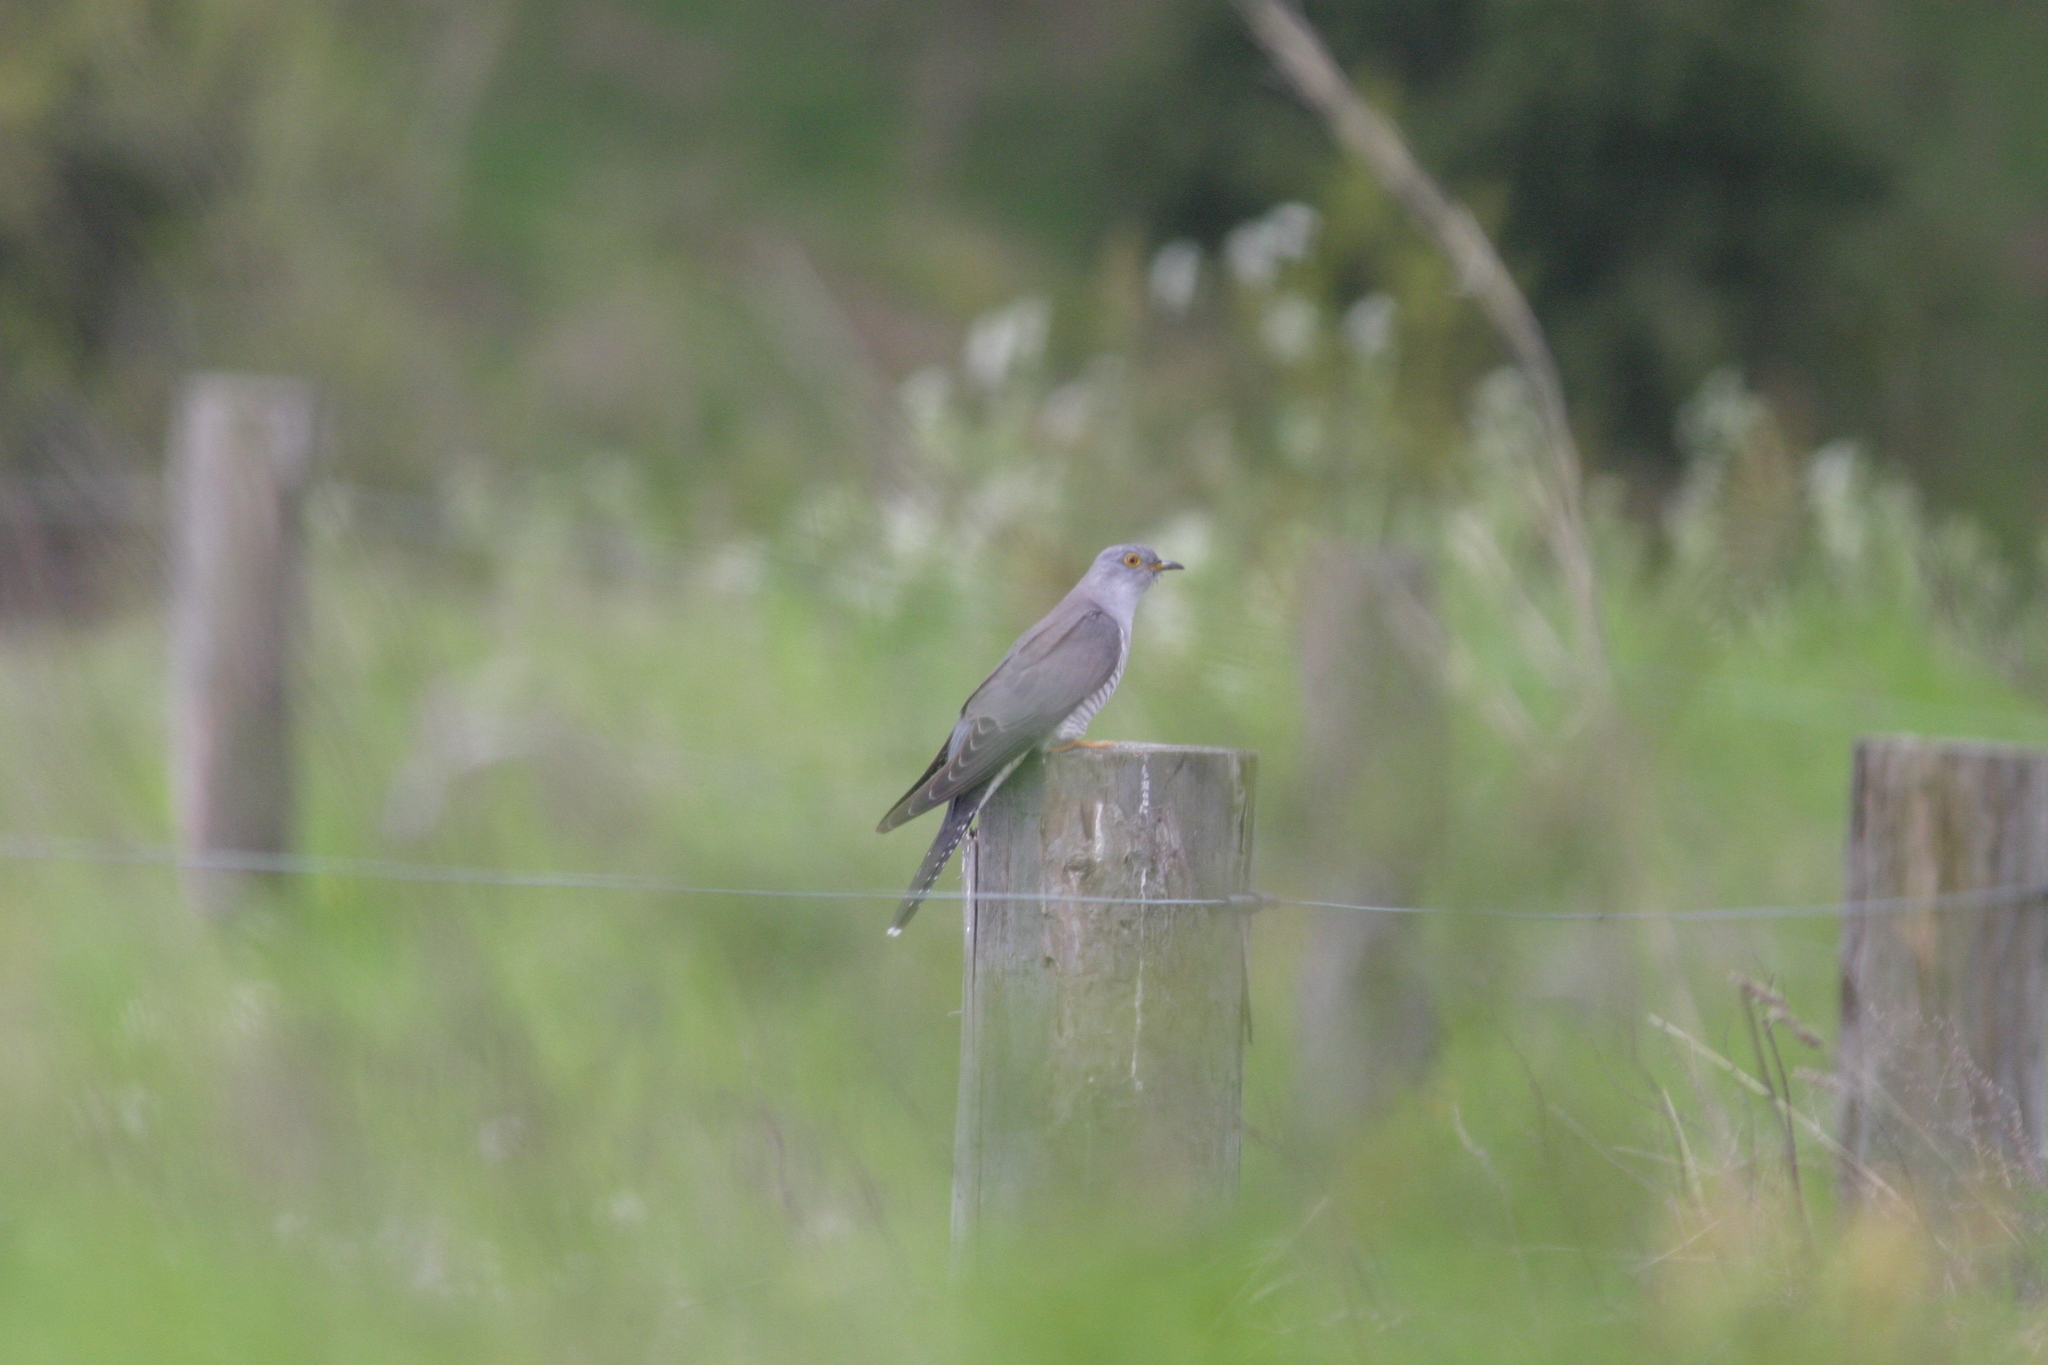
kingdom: Animalia
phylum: Chordata
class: Aves
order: Cuculiformes
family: Cuculidae
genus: Cuculus
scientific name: Cuculus canorus
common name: Common cuckoo
